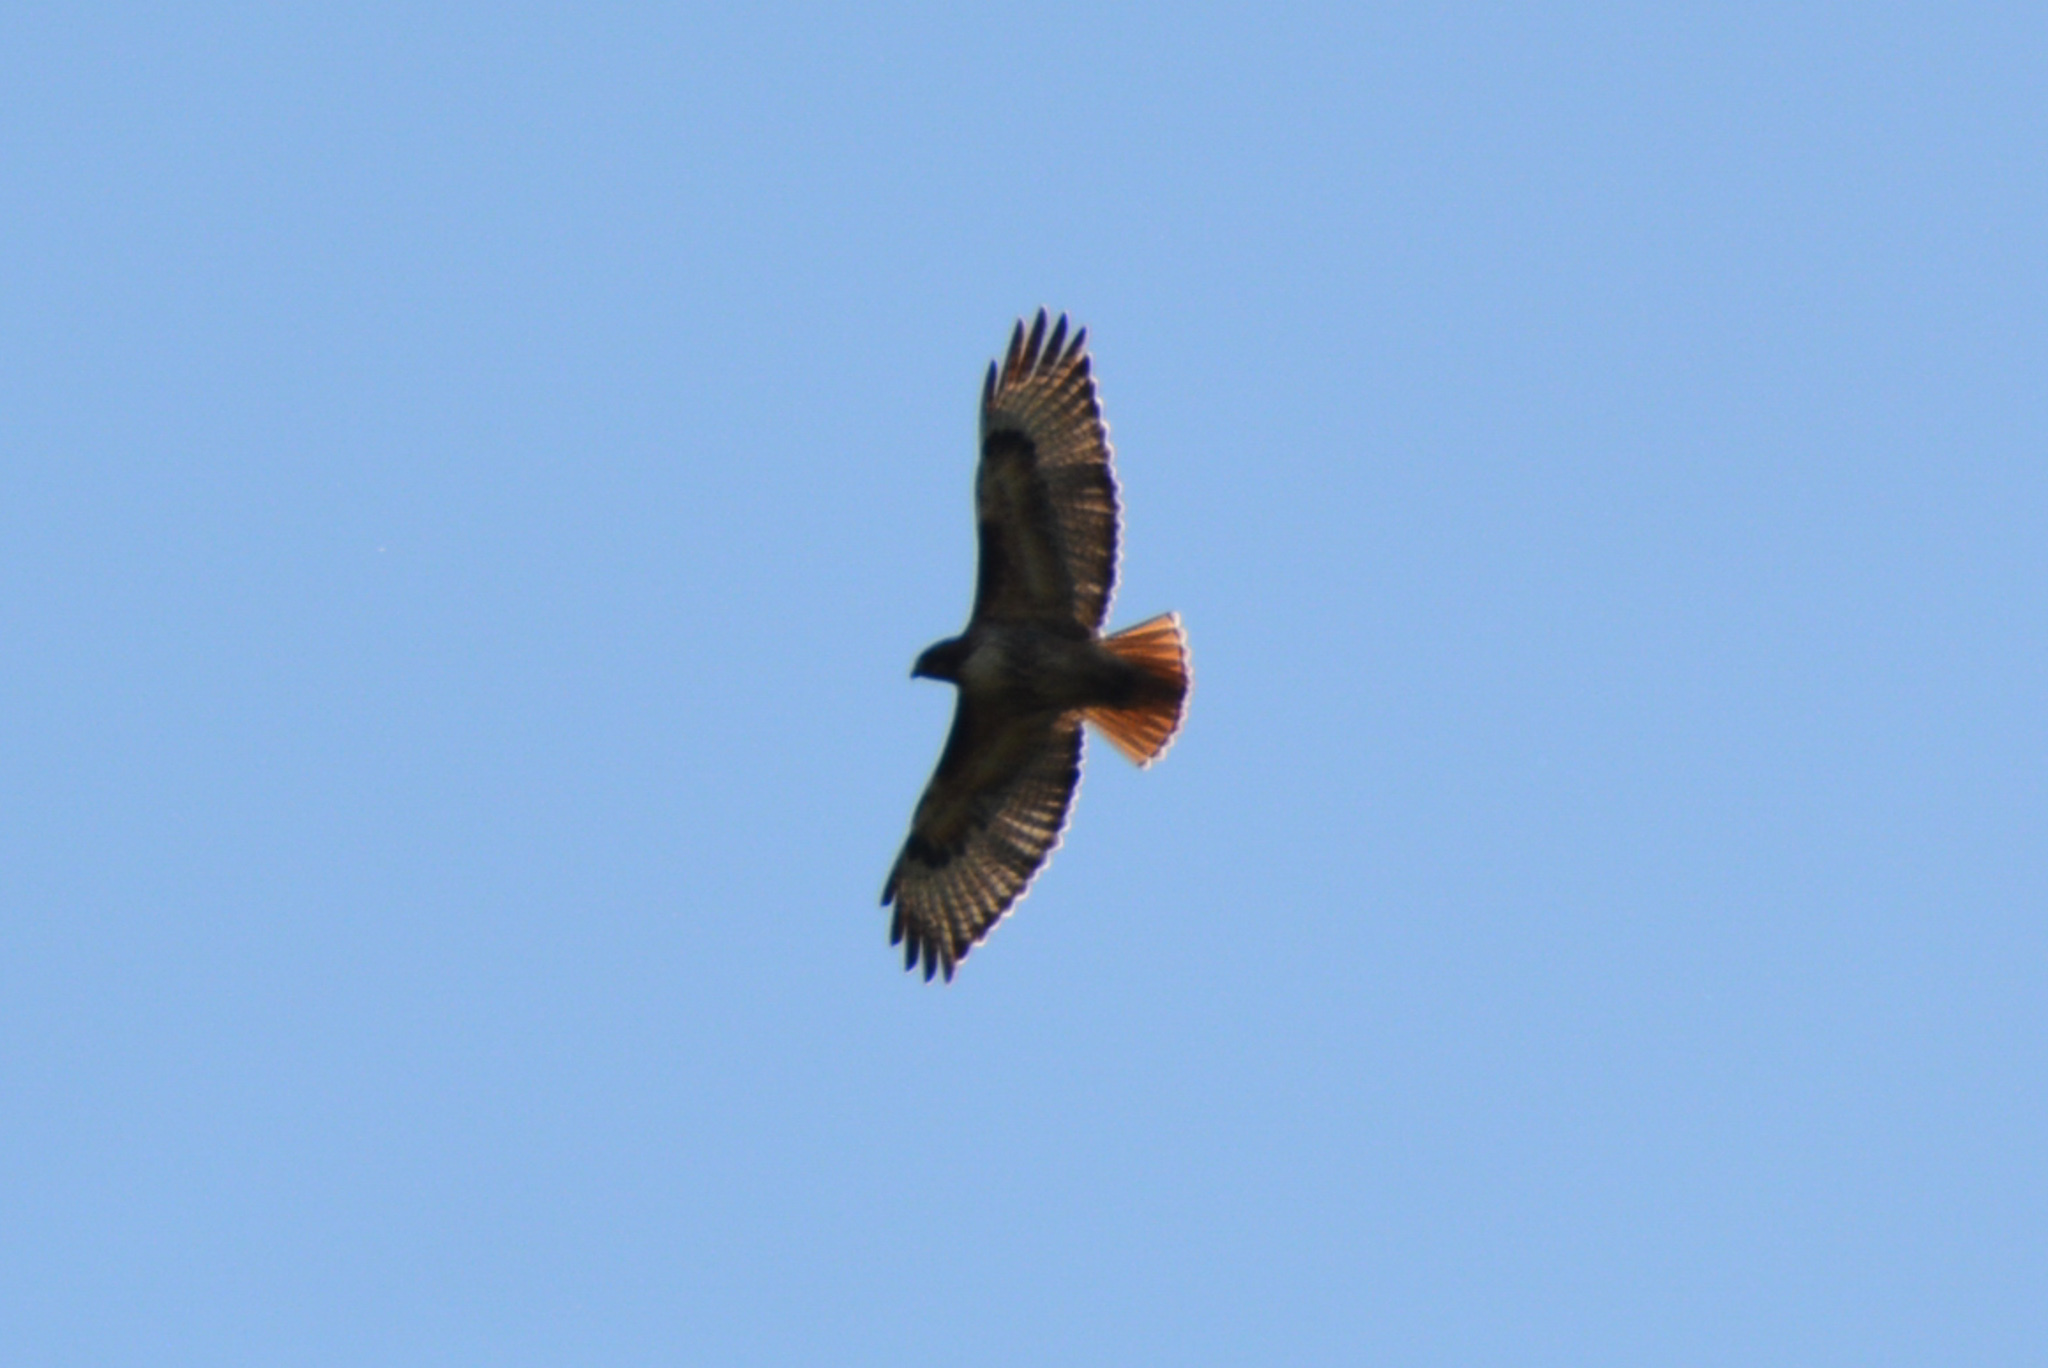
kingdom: Animalia
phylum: Chordata
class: Aves
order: Accipitriformes
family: Accipitridae
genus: Buteo
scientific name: Buteo jamaicensis
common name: Red-tailed hawk
